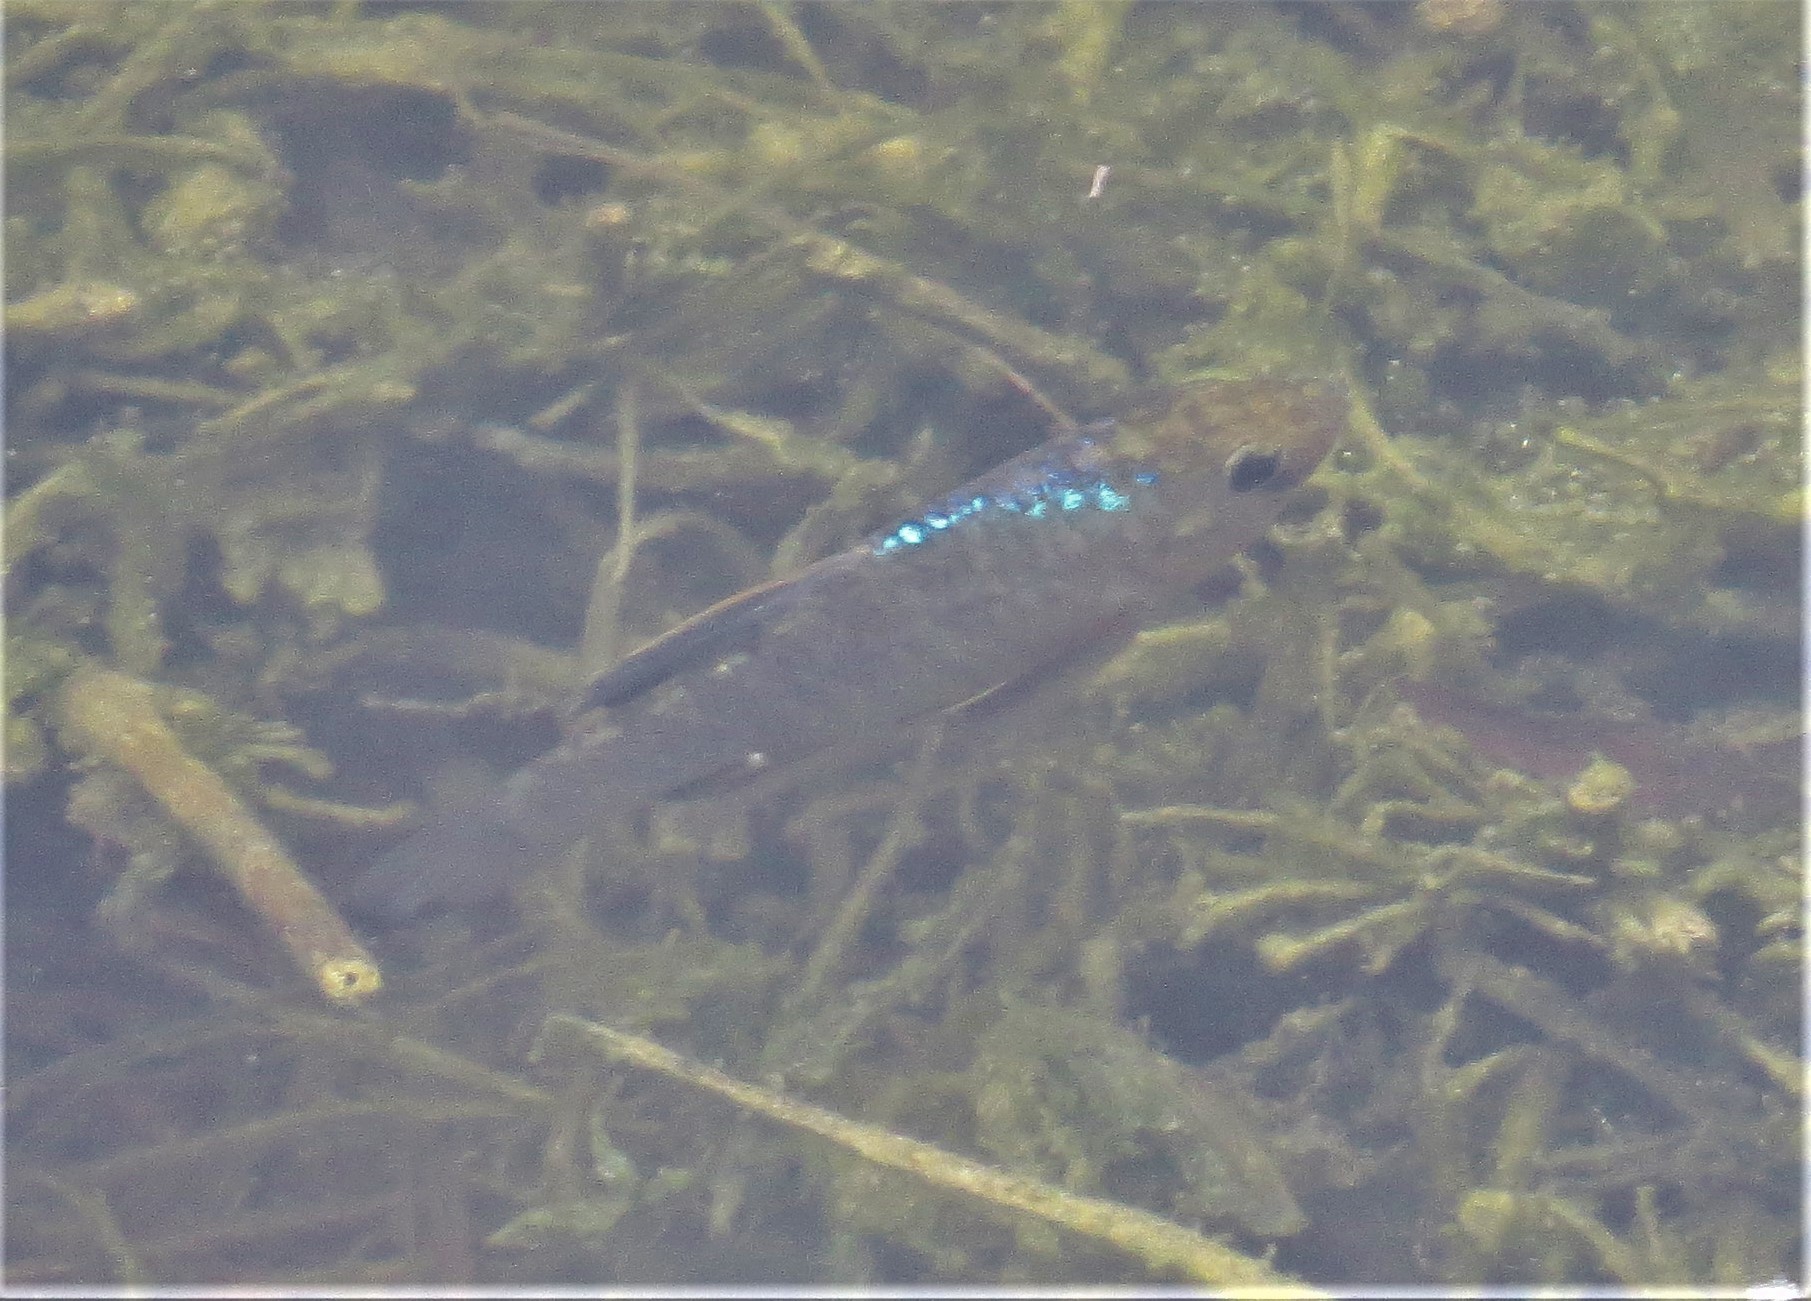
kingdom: Animalia
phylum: Chordata
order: Cyprinodontiformes
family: Cyprinodontidae
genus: Cyprinodon
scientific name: Cyprinodon variegatus
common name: Sheepshead minnow
